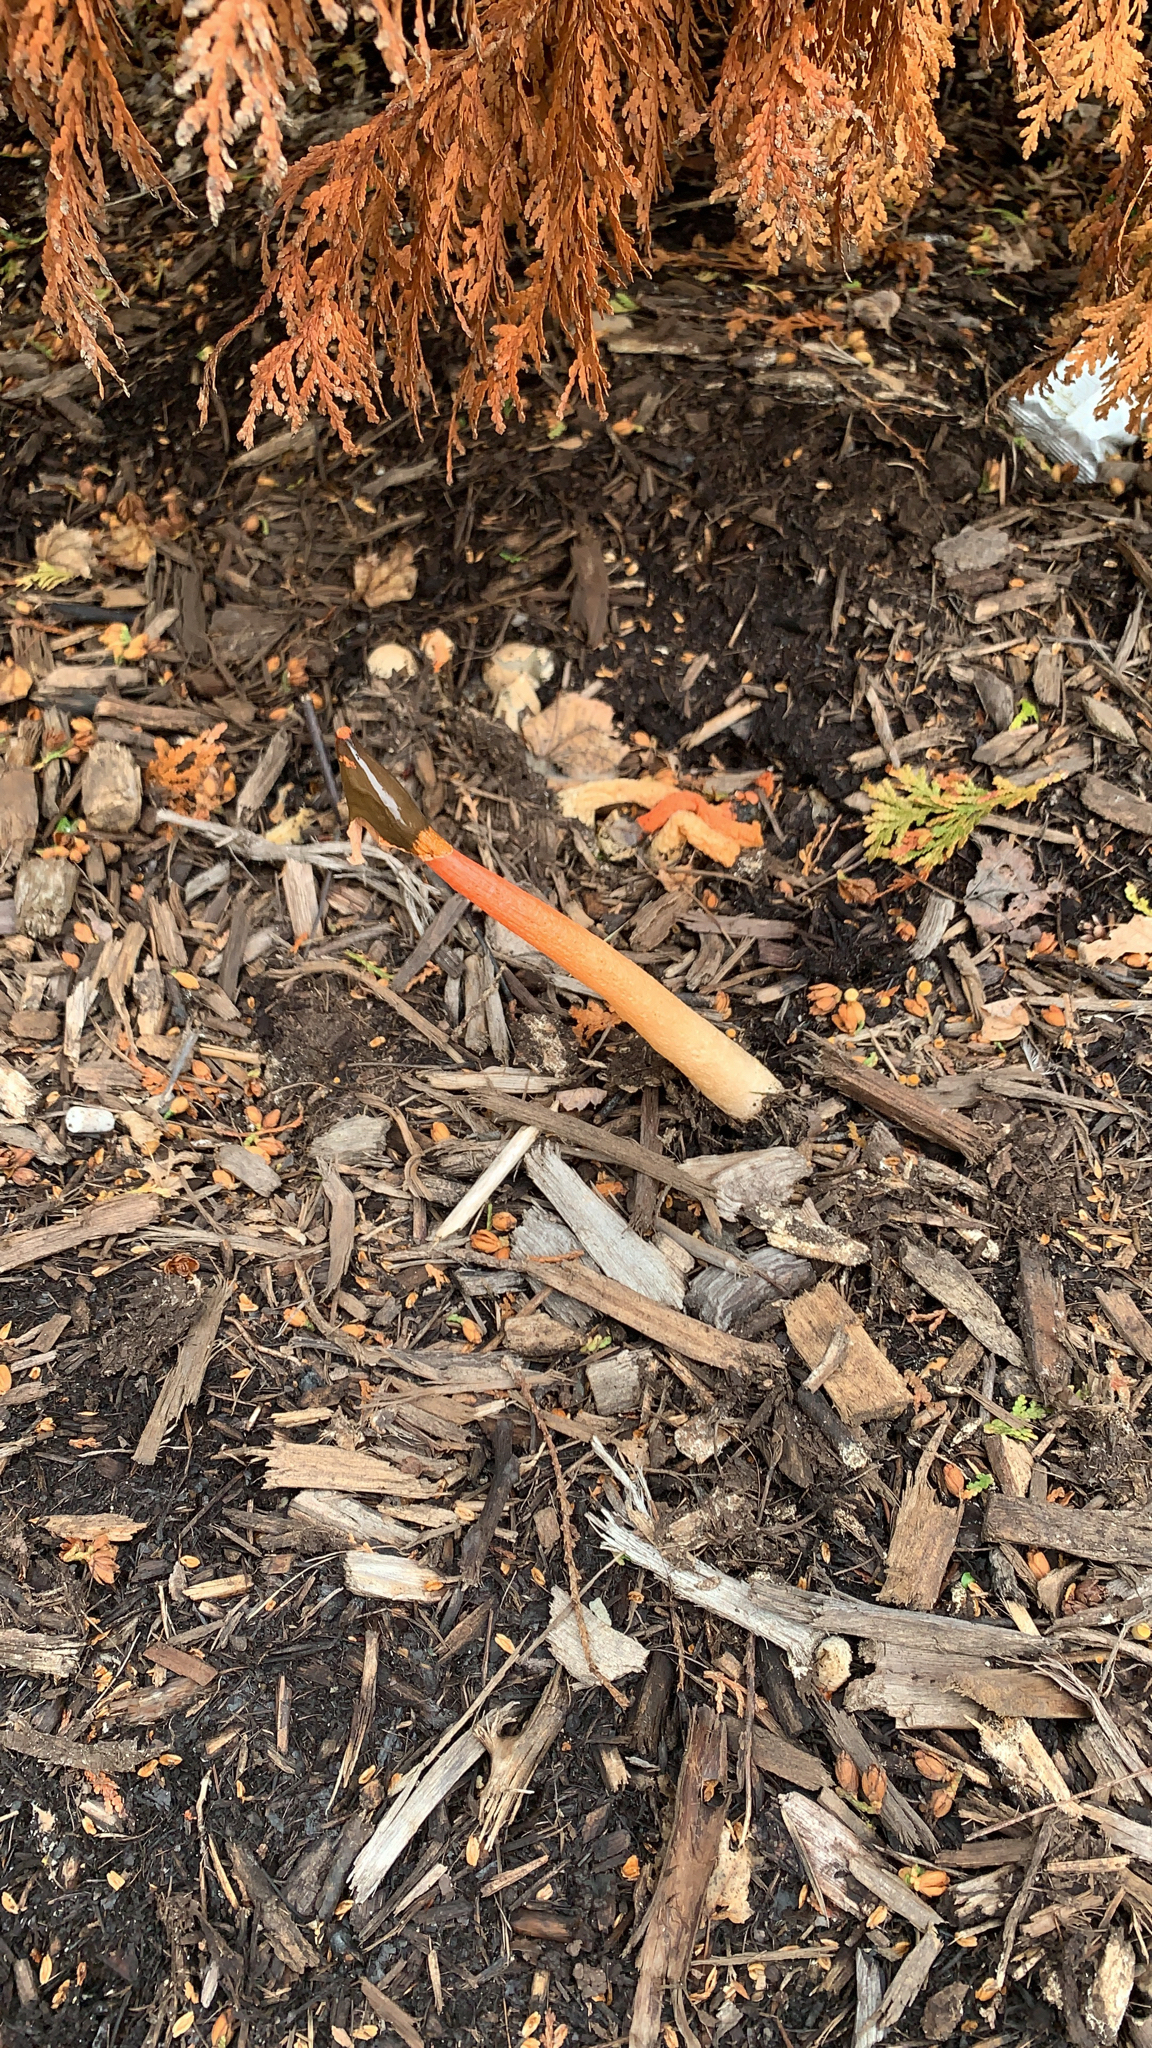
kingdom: Fungi
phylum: Basidiomycota
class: Agaricomycetes
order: Phallales
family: Phallaceae
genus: Phallus
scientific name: Phallus rugulosus
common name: Wrinkly stinkhorn
